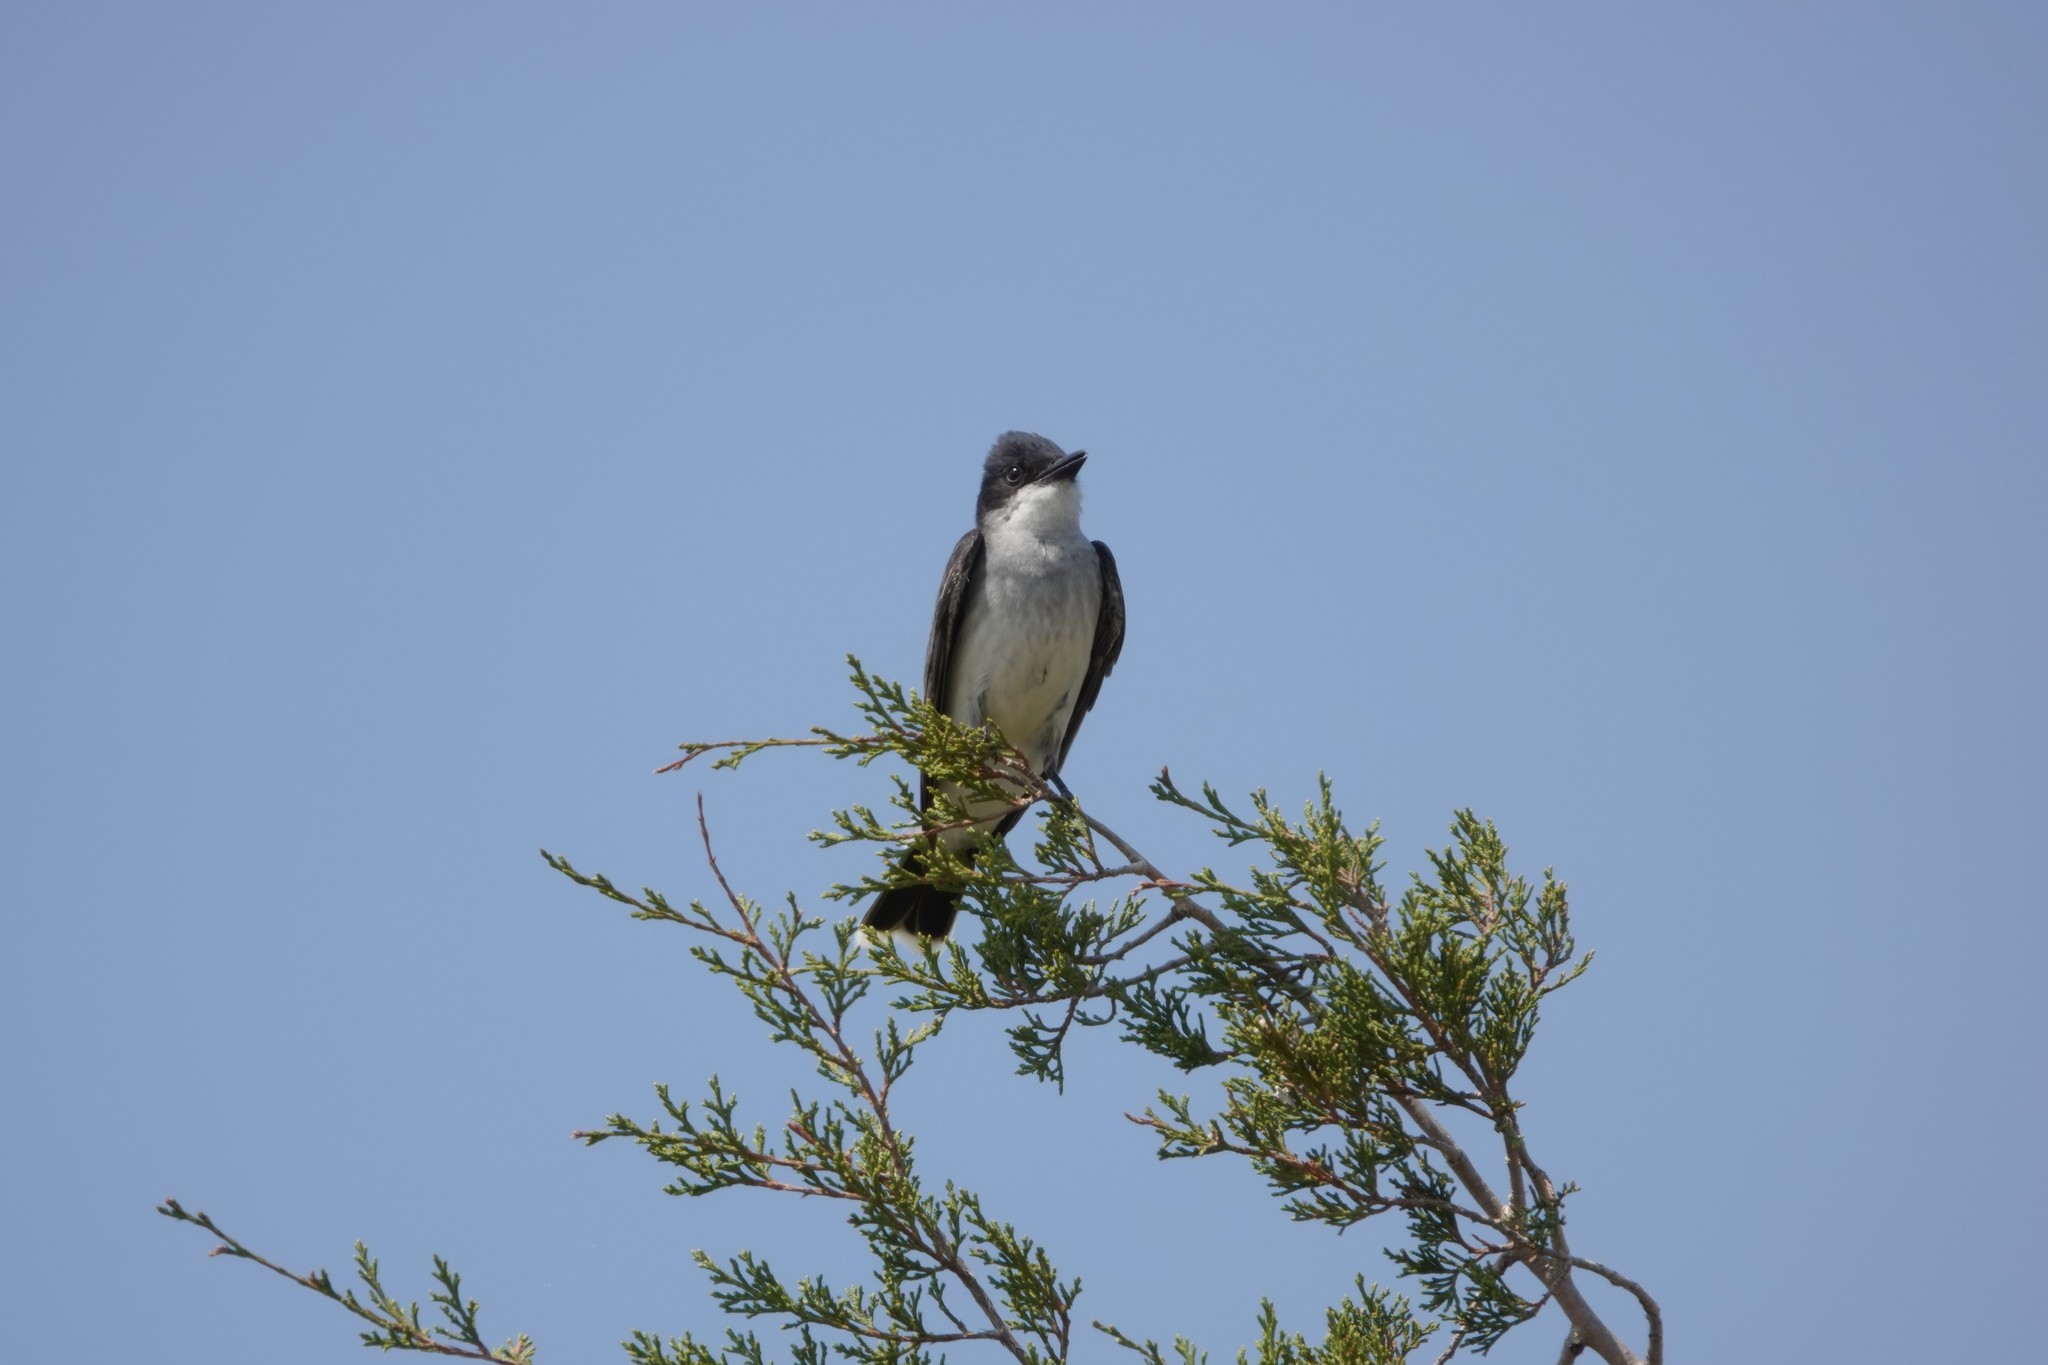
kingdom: Animalia
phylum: Chordata
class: Aves
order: Passeriformes
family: Tyrannidae
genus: Tyrannus
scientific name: Tyrannus tyrannus
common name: Eastern kingbird
